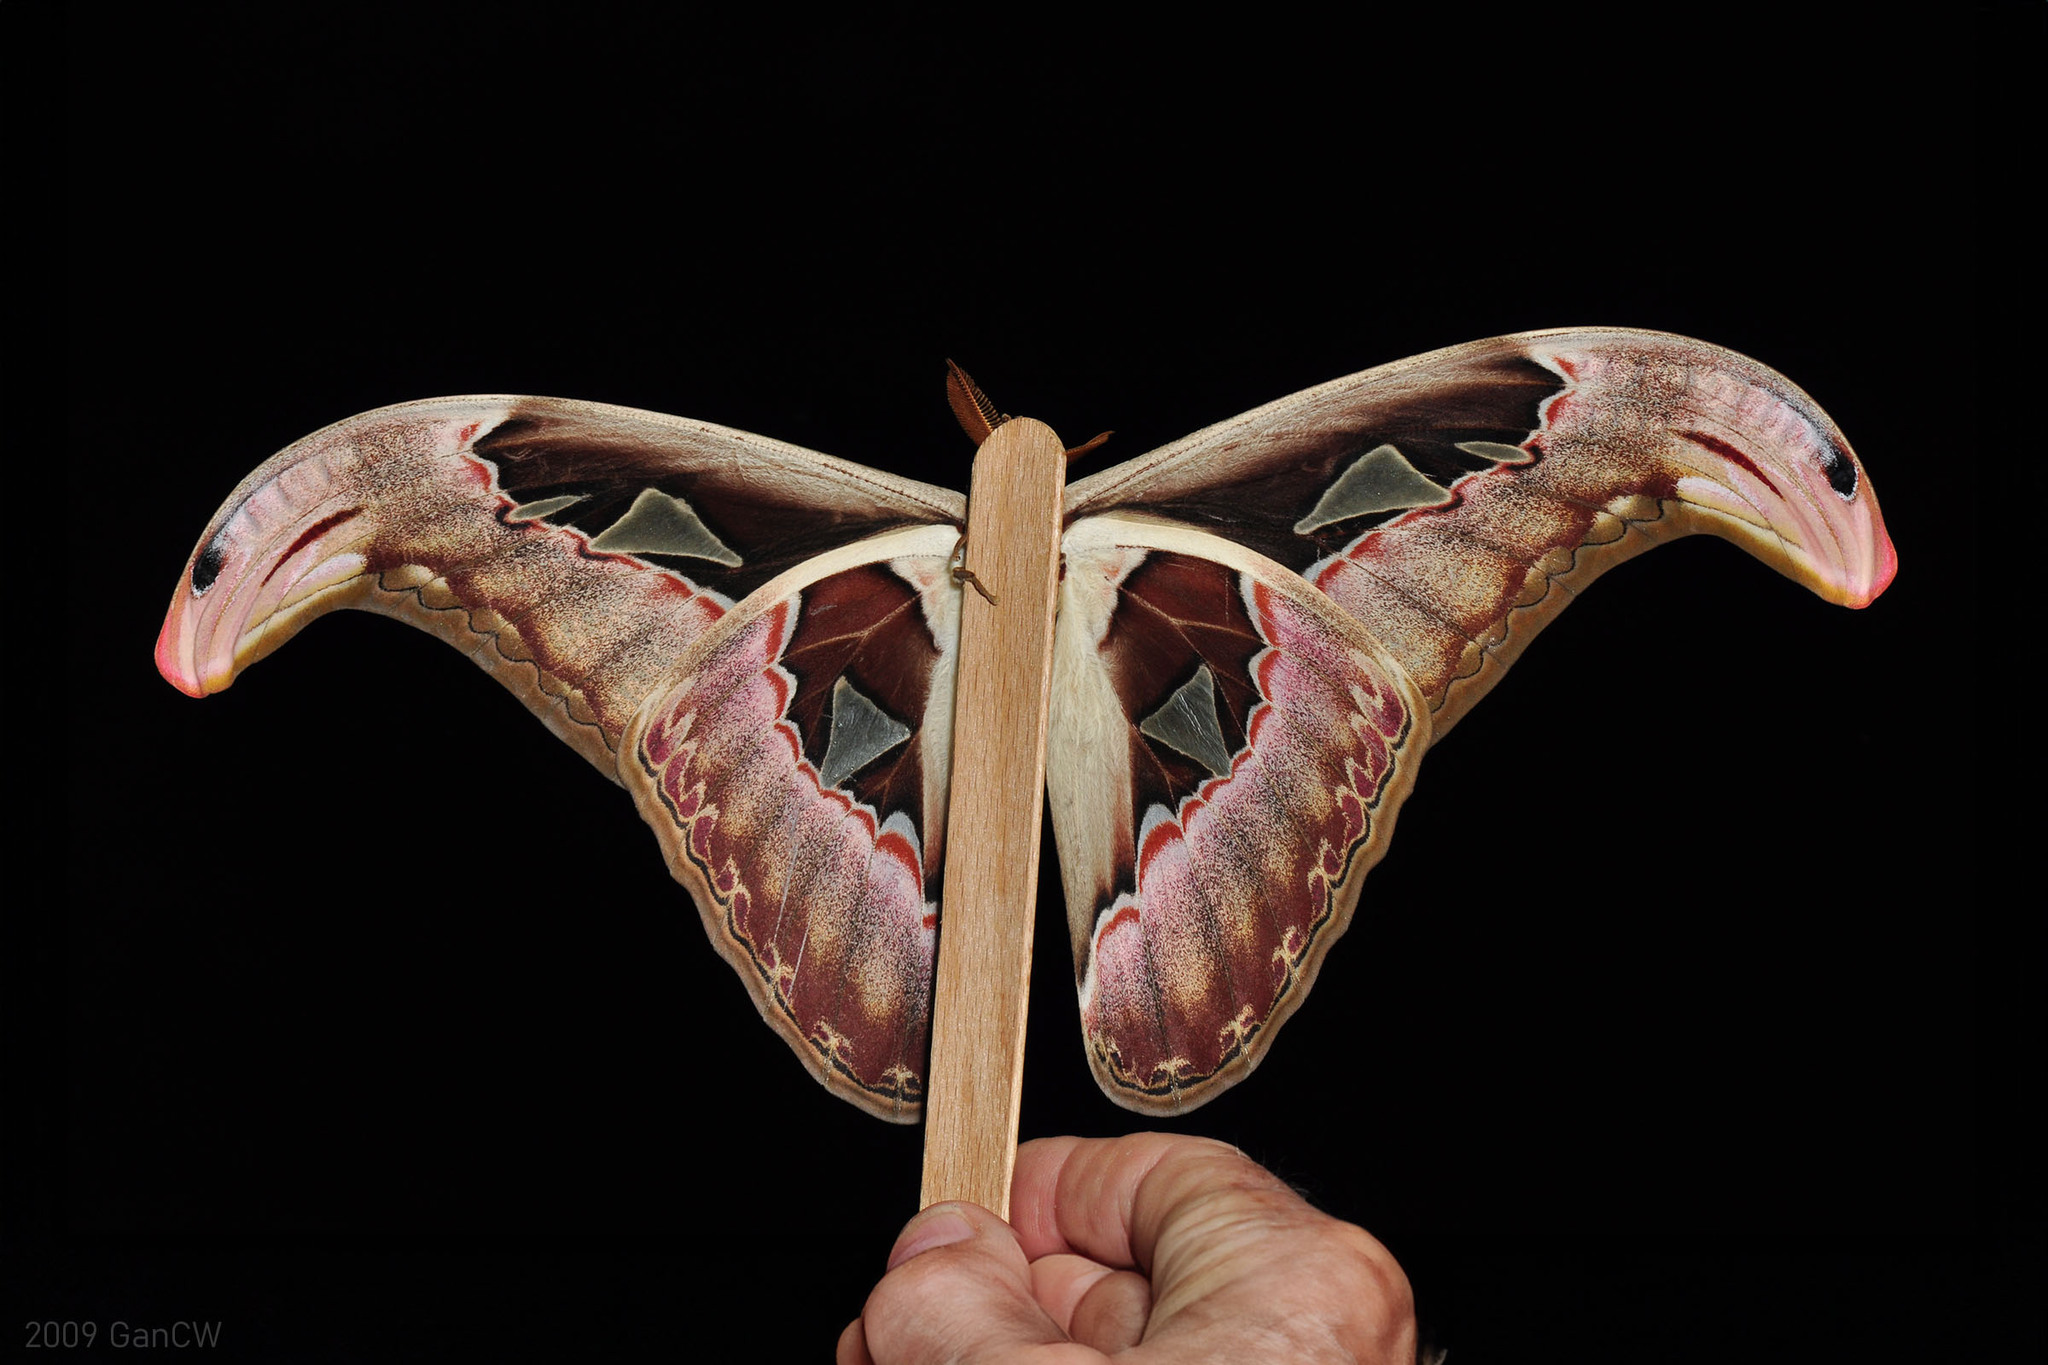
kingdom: Animalia
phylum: Arthropoda
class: Insecta
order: Lepidoptera
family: Saturniidae
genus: Attacus
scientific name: Attacus atlas
